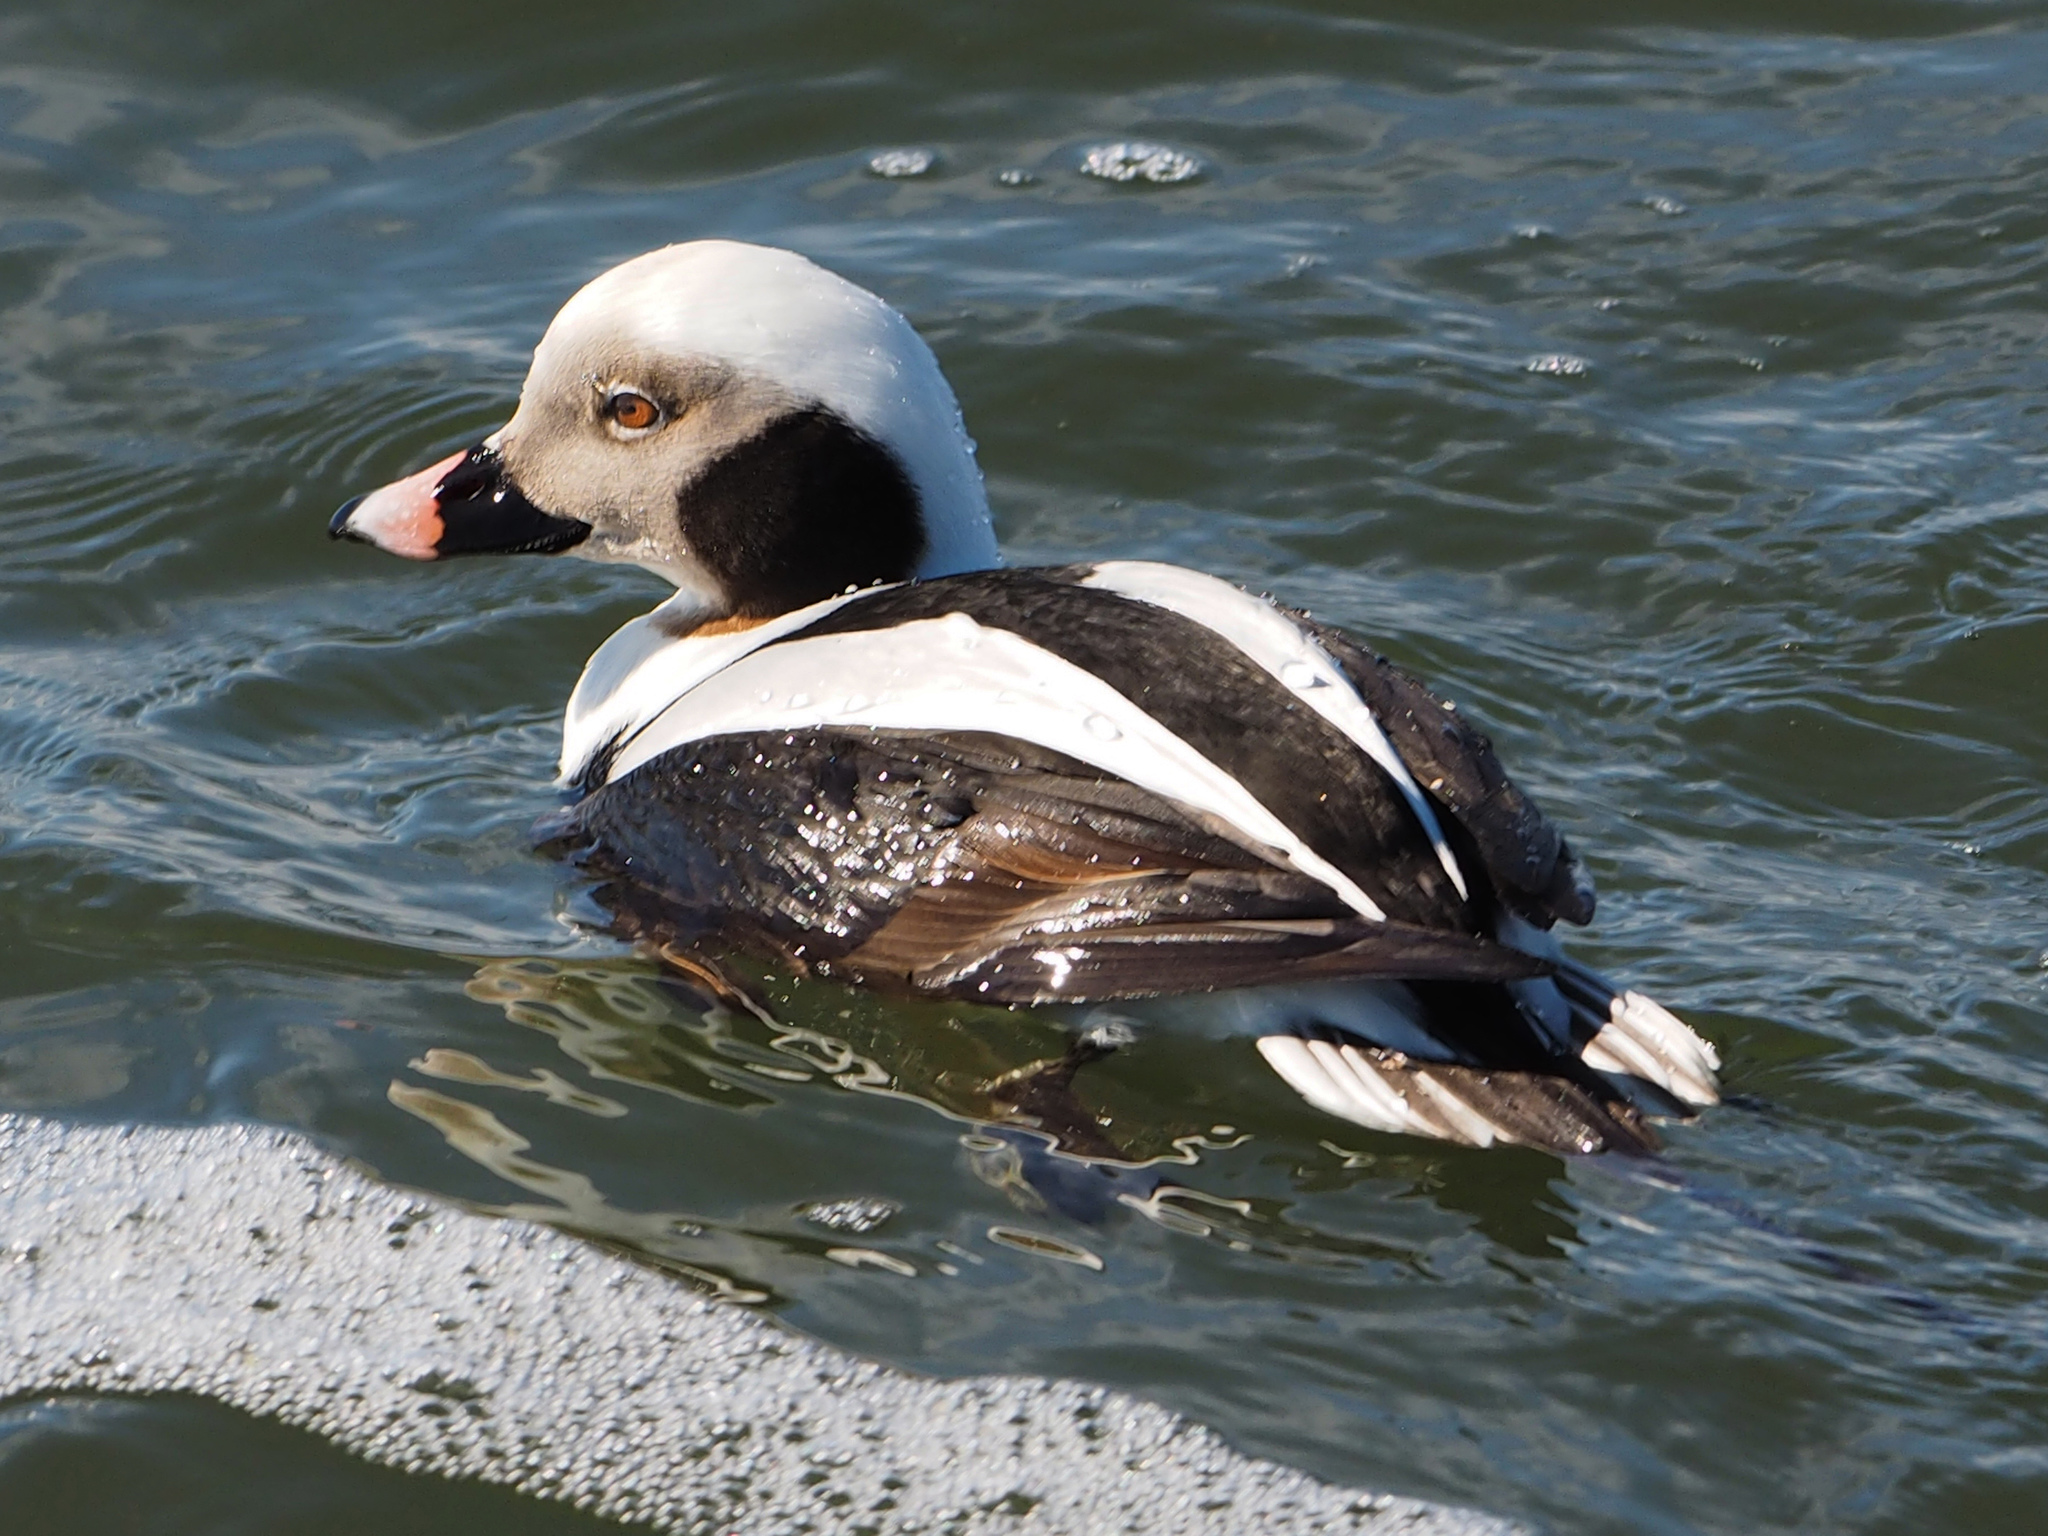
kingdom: Animalia
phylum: Chordata
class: Aves
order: Anseriformes
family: Anatidae
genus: Clangula
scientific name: Clangula hyemalis
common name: Long-tailed duck
